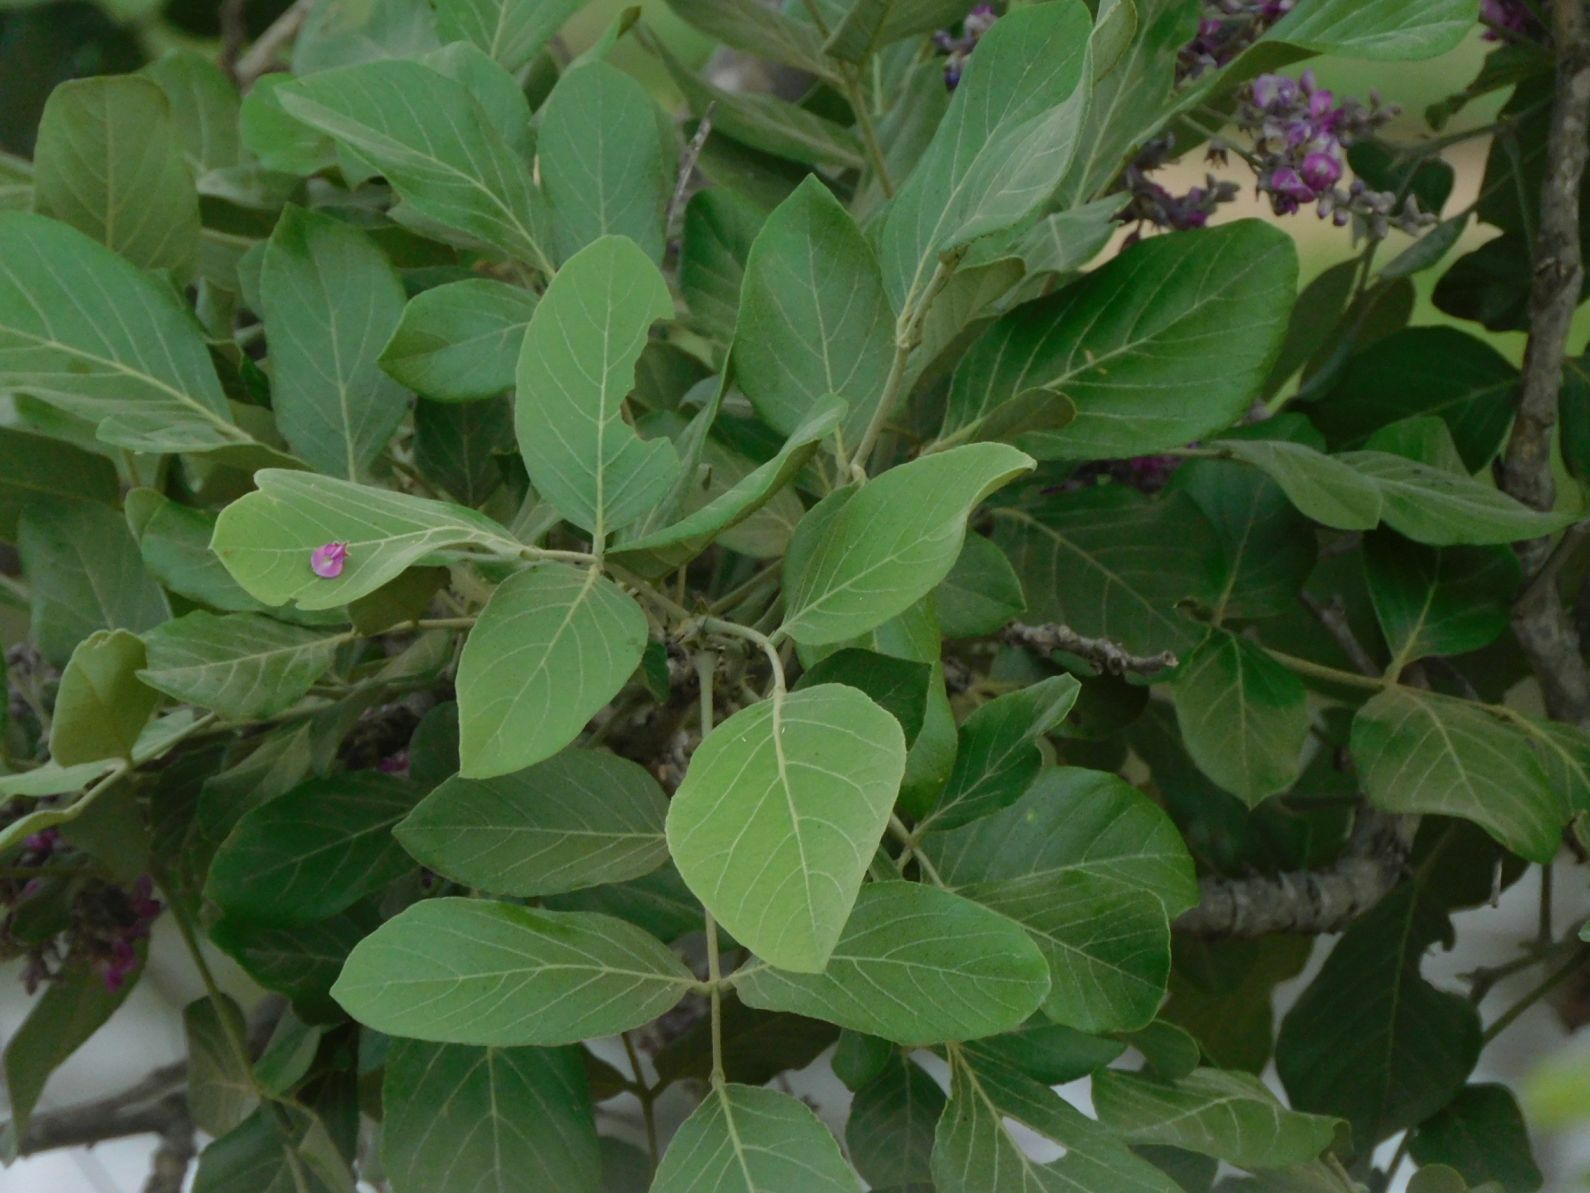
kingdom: Plantae
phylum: Tracheophyta
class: Magnoliopsida
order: Fabales
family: Fabaceae
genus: Philenoptera
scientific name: Philenoptera violacea
